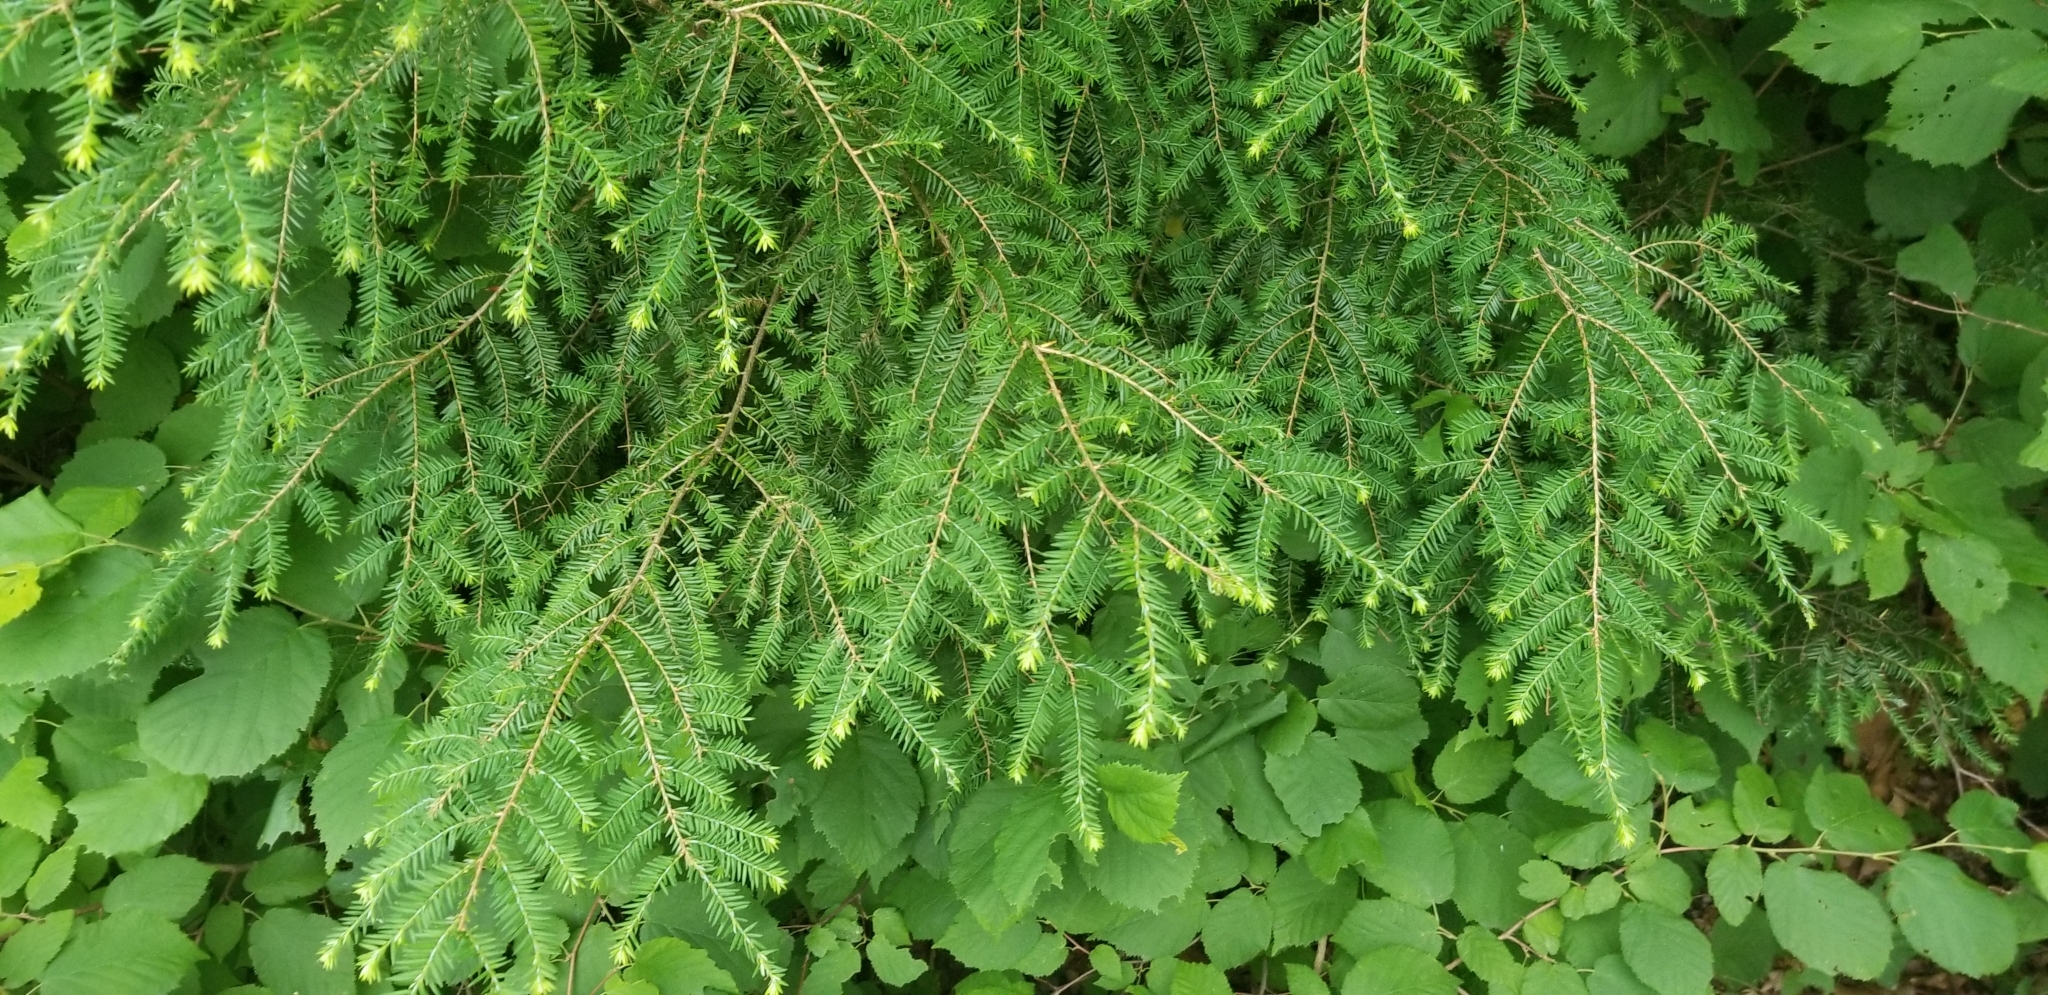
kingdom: Plantae
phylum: Tracheophyta
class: Pinopsida
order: Pinales
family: Pinaceae
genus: Tsuga
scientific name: Tsuga canadensis
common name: Eastern hemlock
